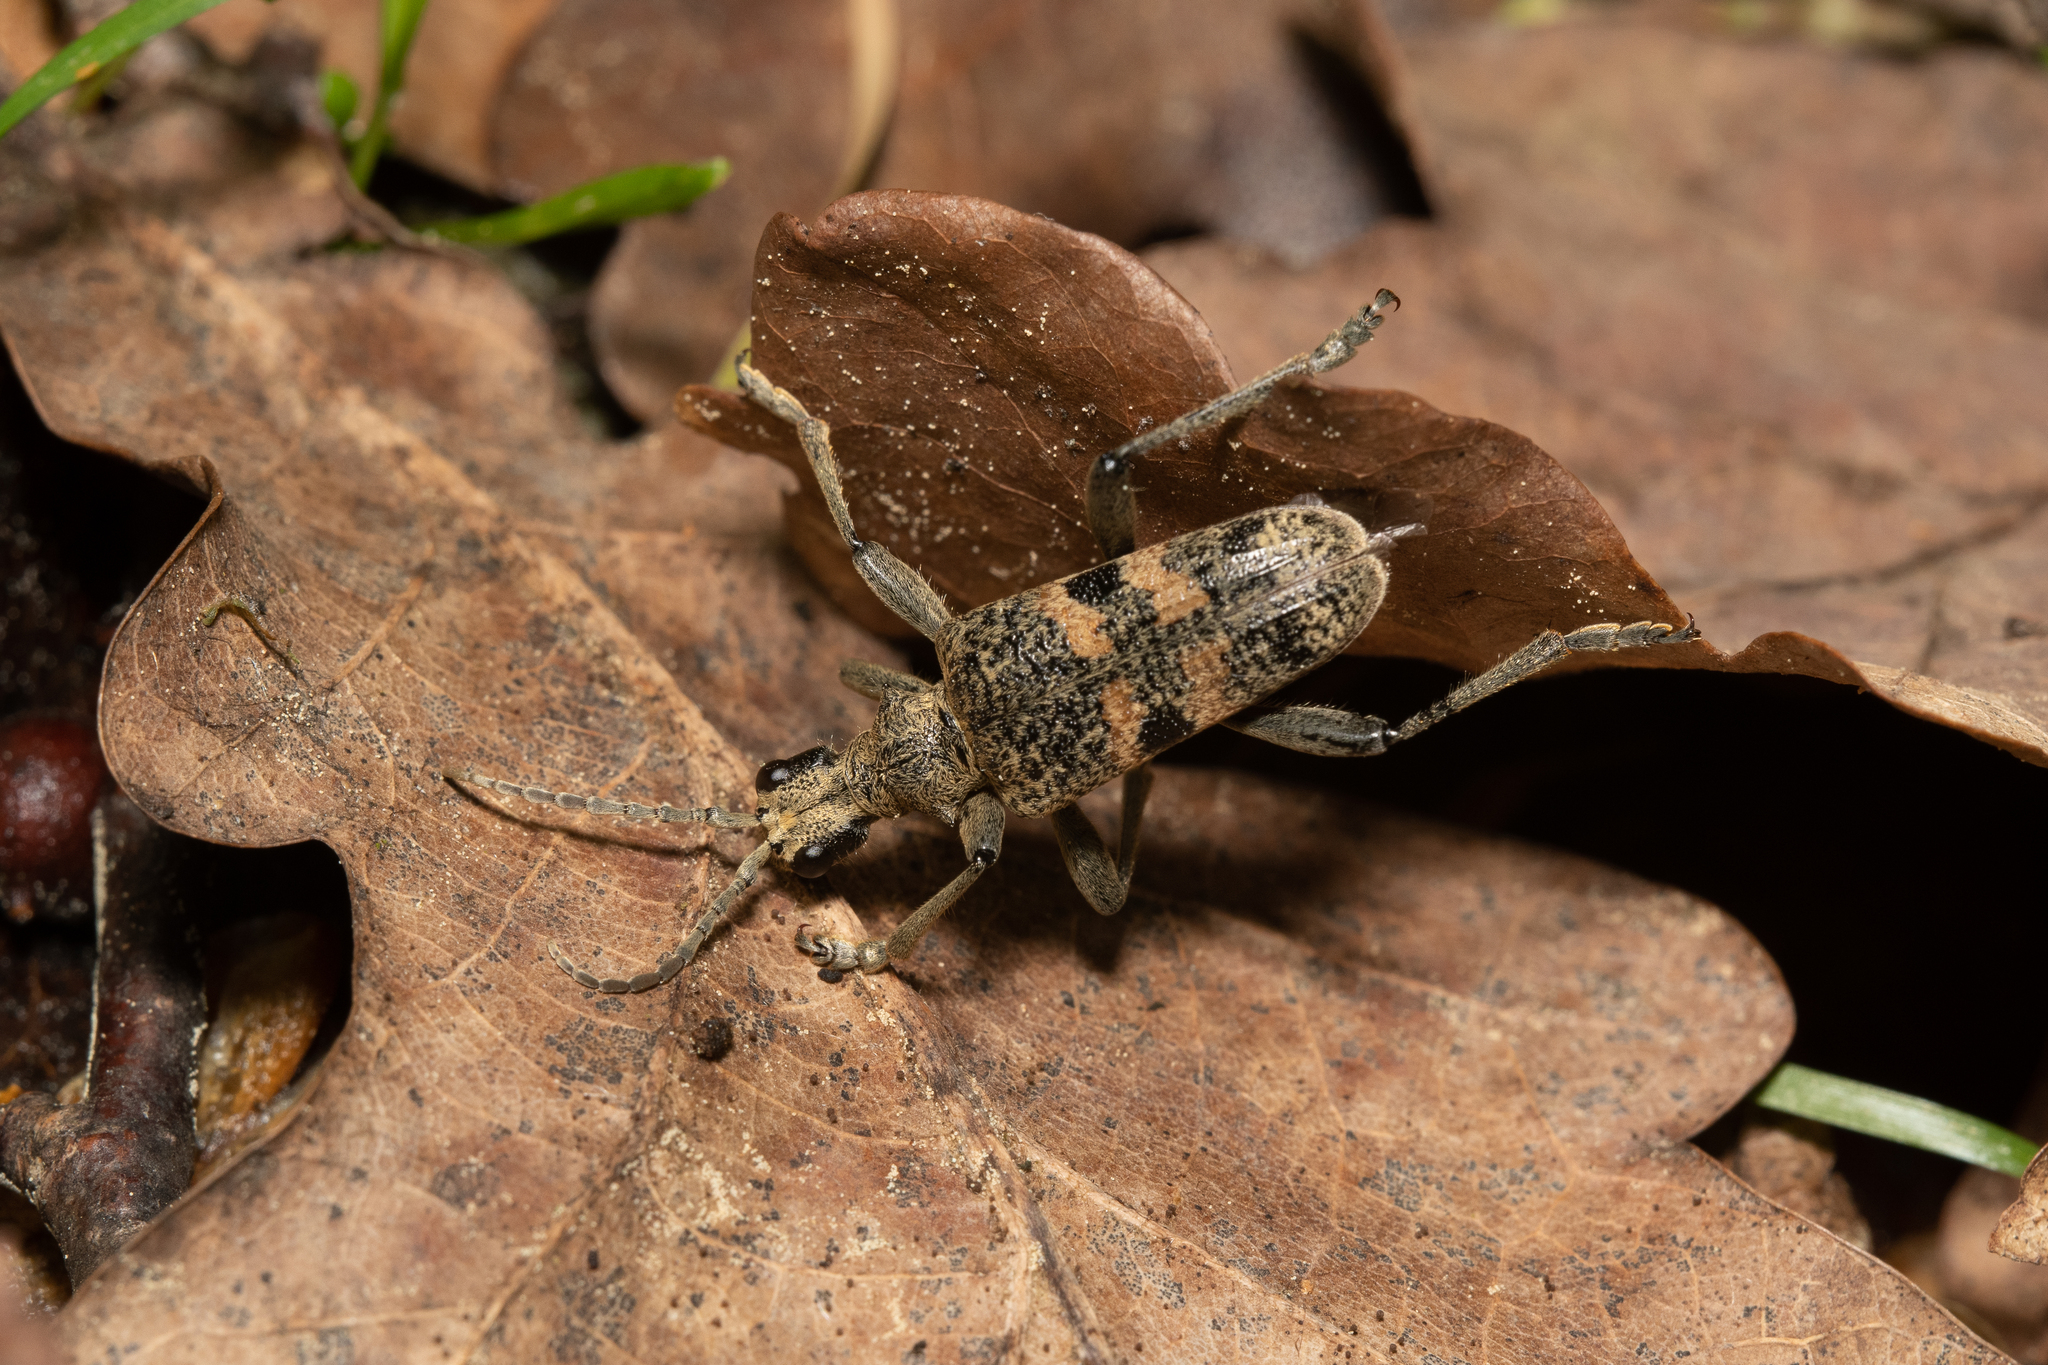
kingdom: Animalia
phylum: Arthropoda
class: Insecta
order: Coleoptera
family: Cerambycidae
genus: Rhagium
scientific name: Rhagium mordax
